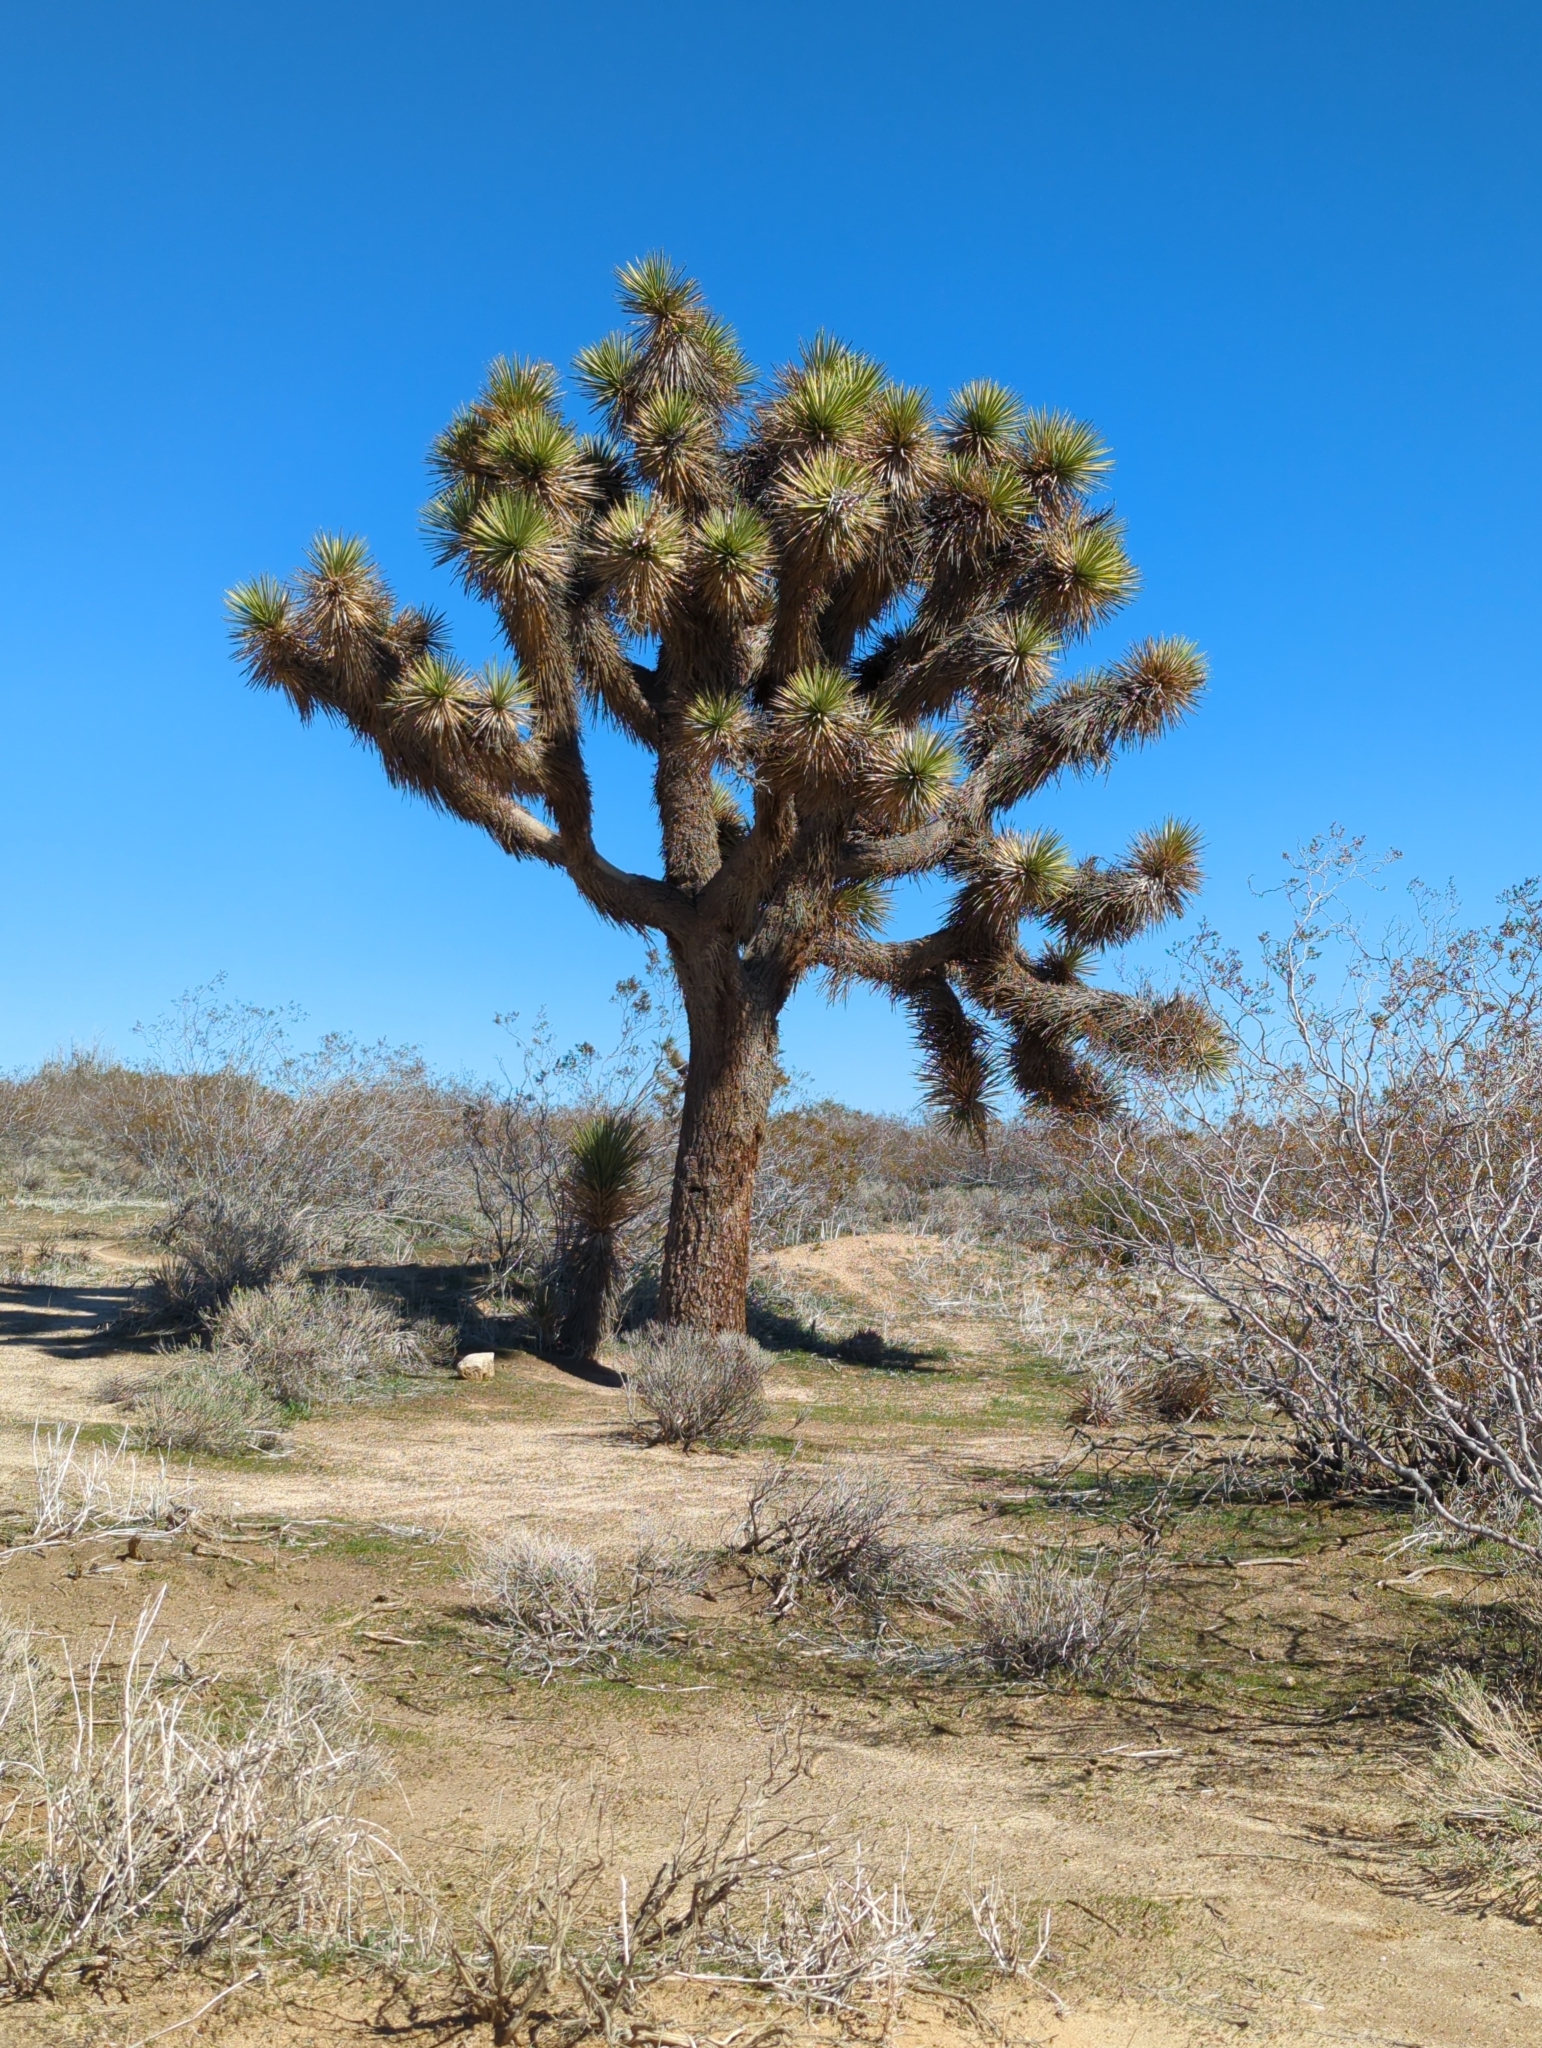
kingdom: Plantae
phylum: Tracheophyta
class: Liliopsida
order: Asparagales
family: Asparagaceae
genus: Yucca
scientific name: Yucca brevifolia
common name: Joshua tree
